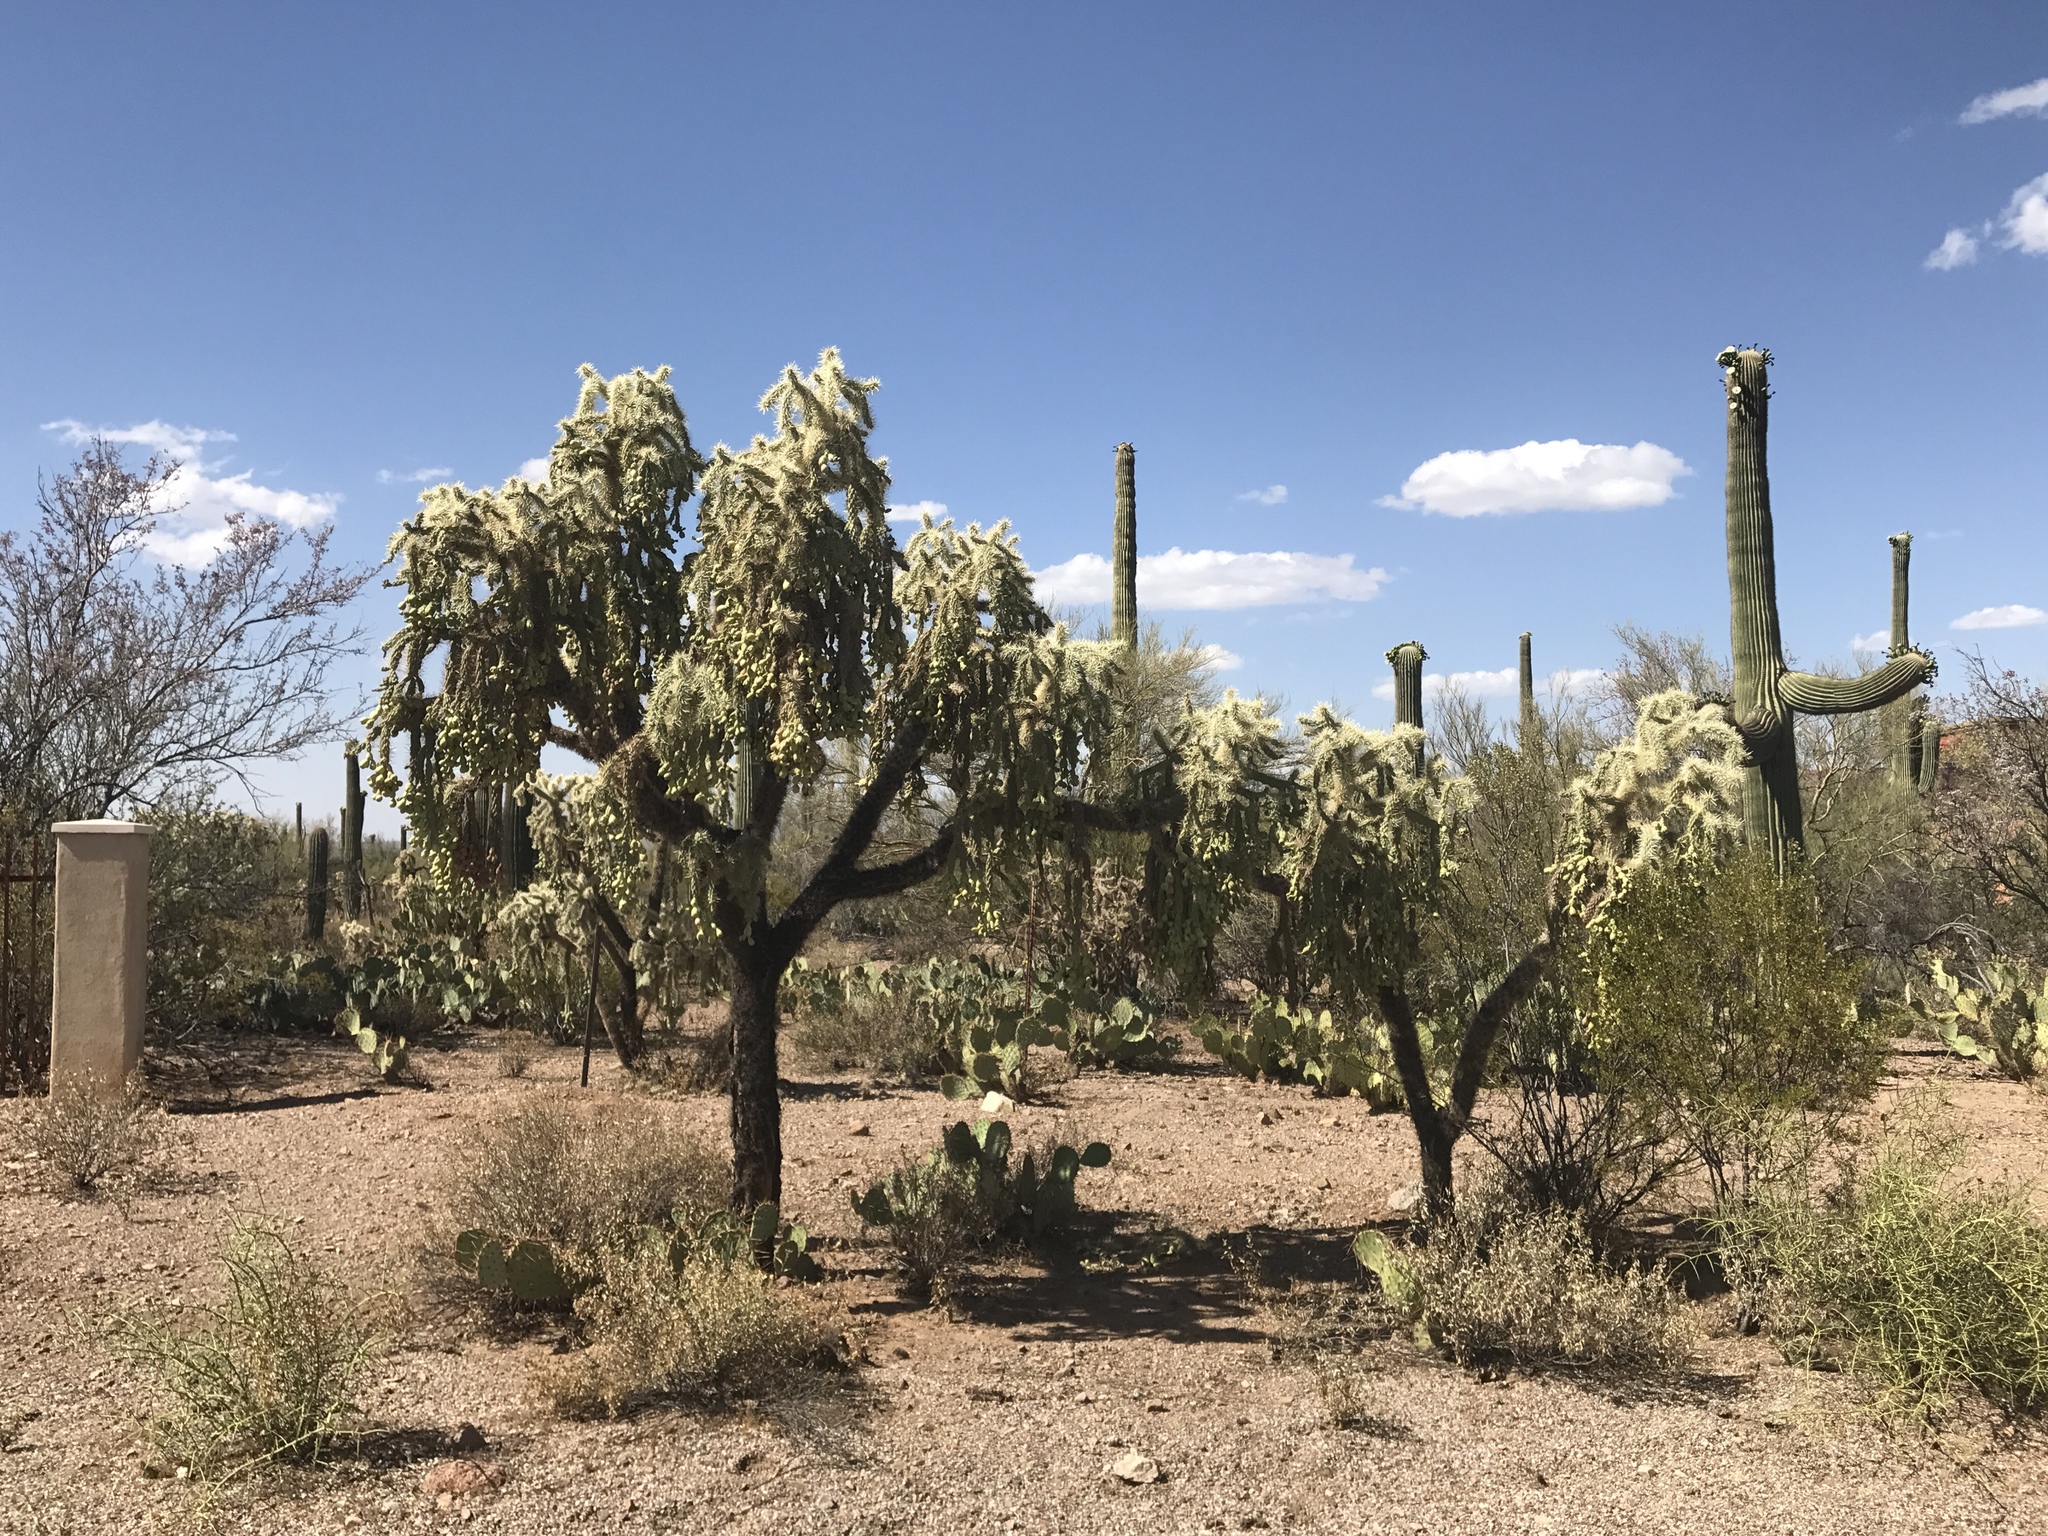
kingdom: Plantae
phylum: Tracheophyta
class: Magnoliopsida
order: Caryophyllales
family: Cactaceae
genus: Cylindropuntia
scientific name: Cylindropuntia fulgida
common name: Jumping cholla
